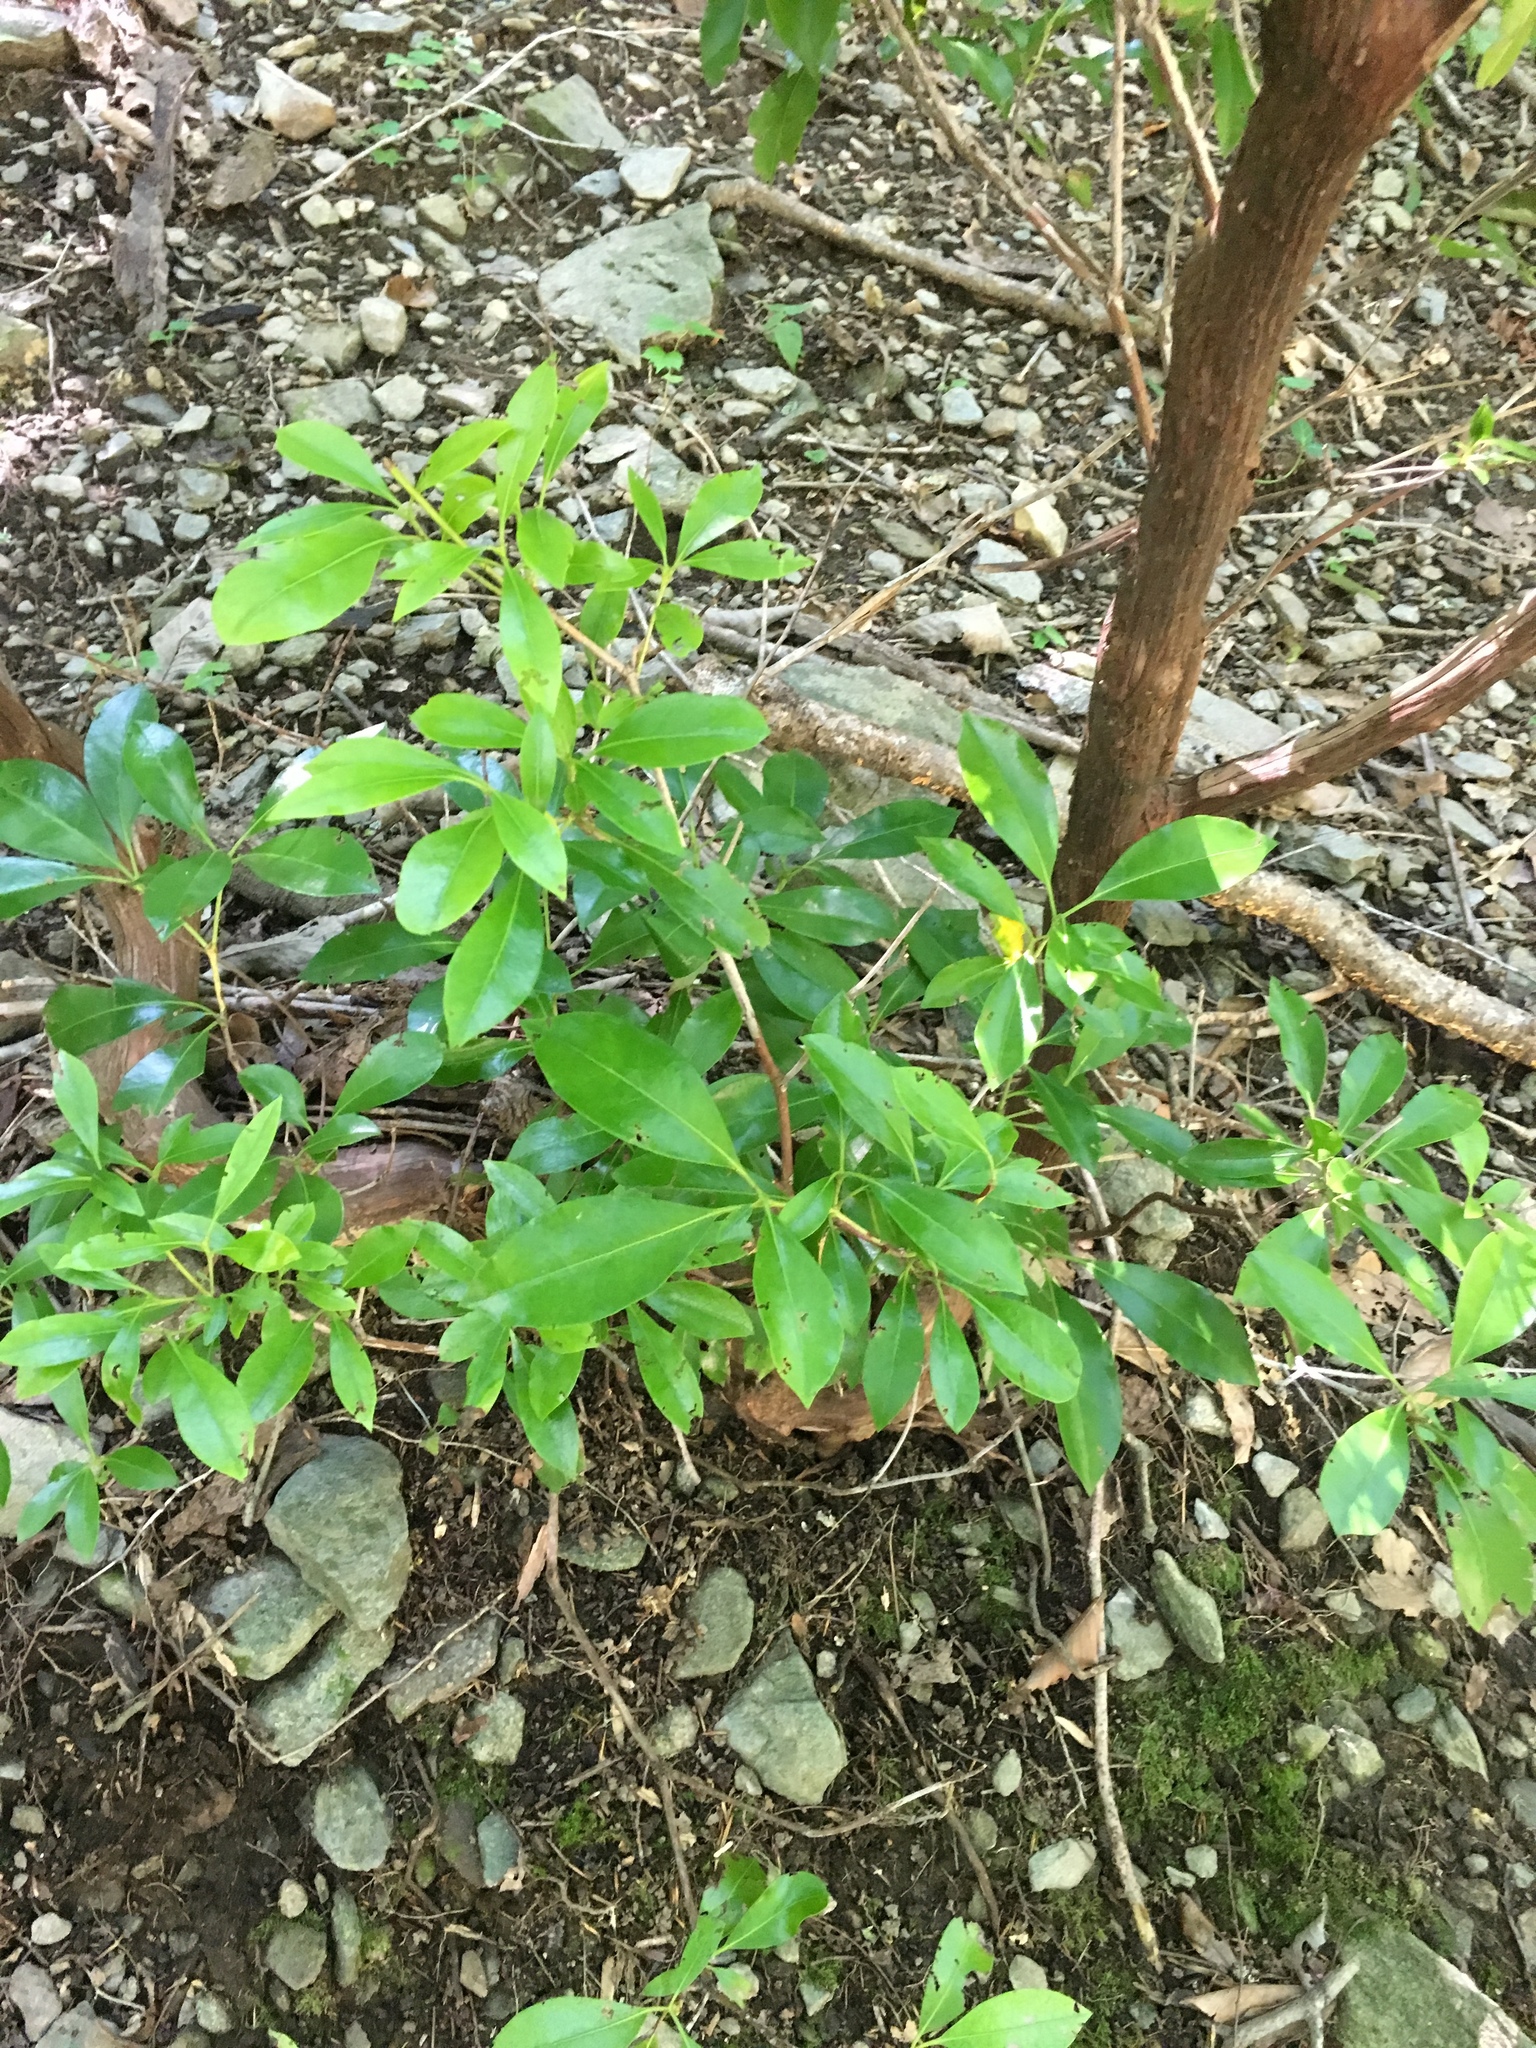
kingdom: Plantae
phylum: Tracheophyta
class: Magnoliopsida
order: Ericales
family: Ericaceae
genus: Kalmia
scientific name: Kalmia latifolia
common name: Mountain-laurel
